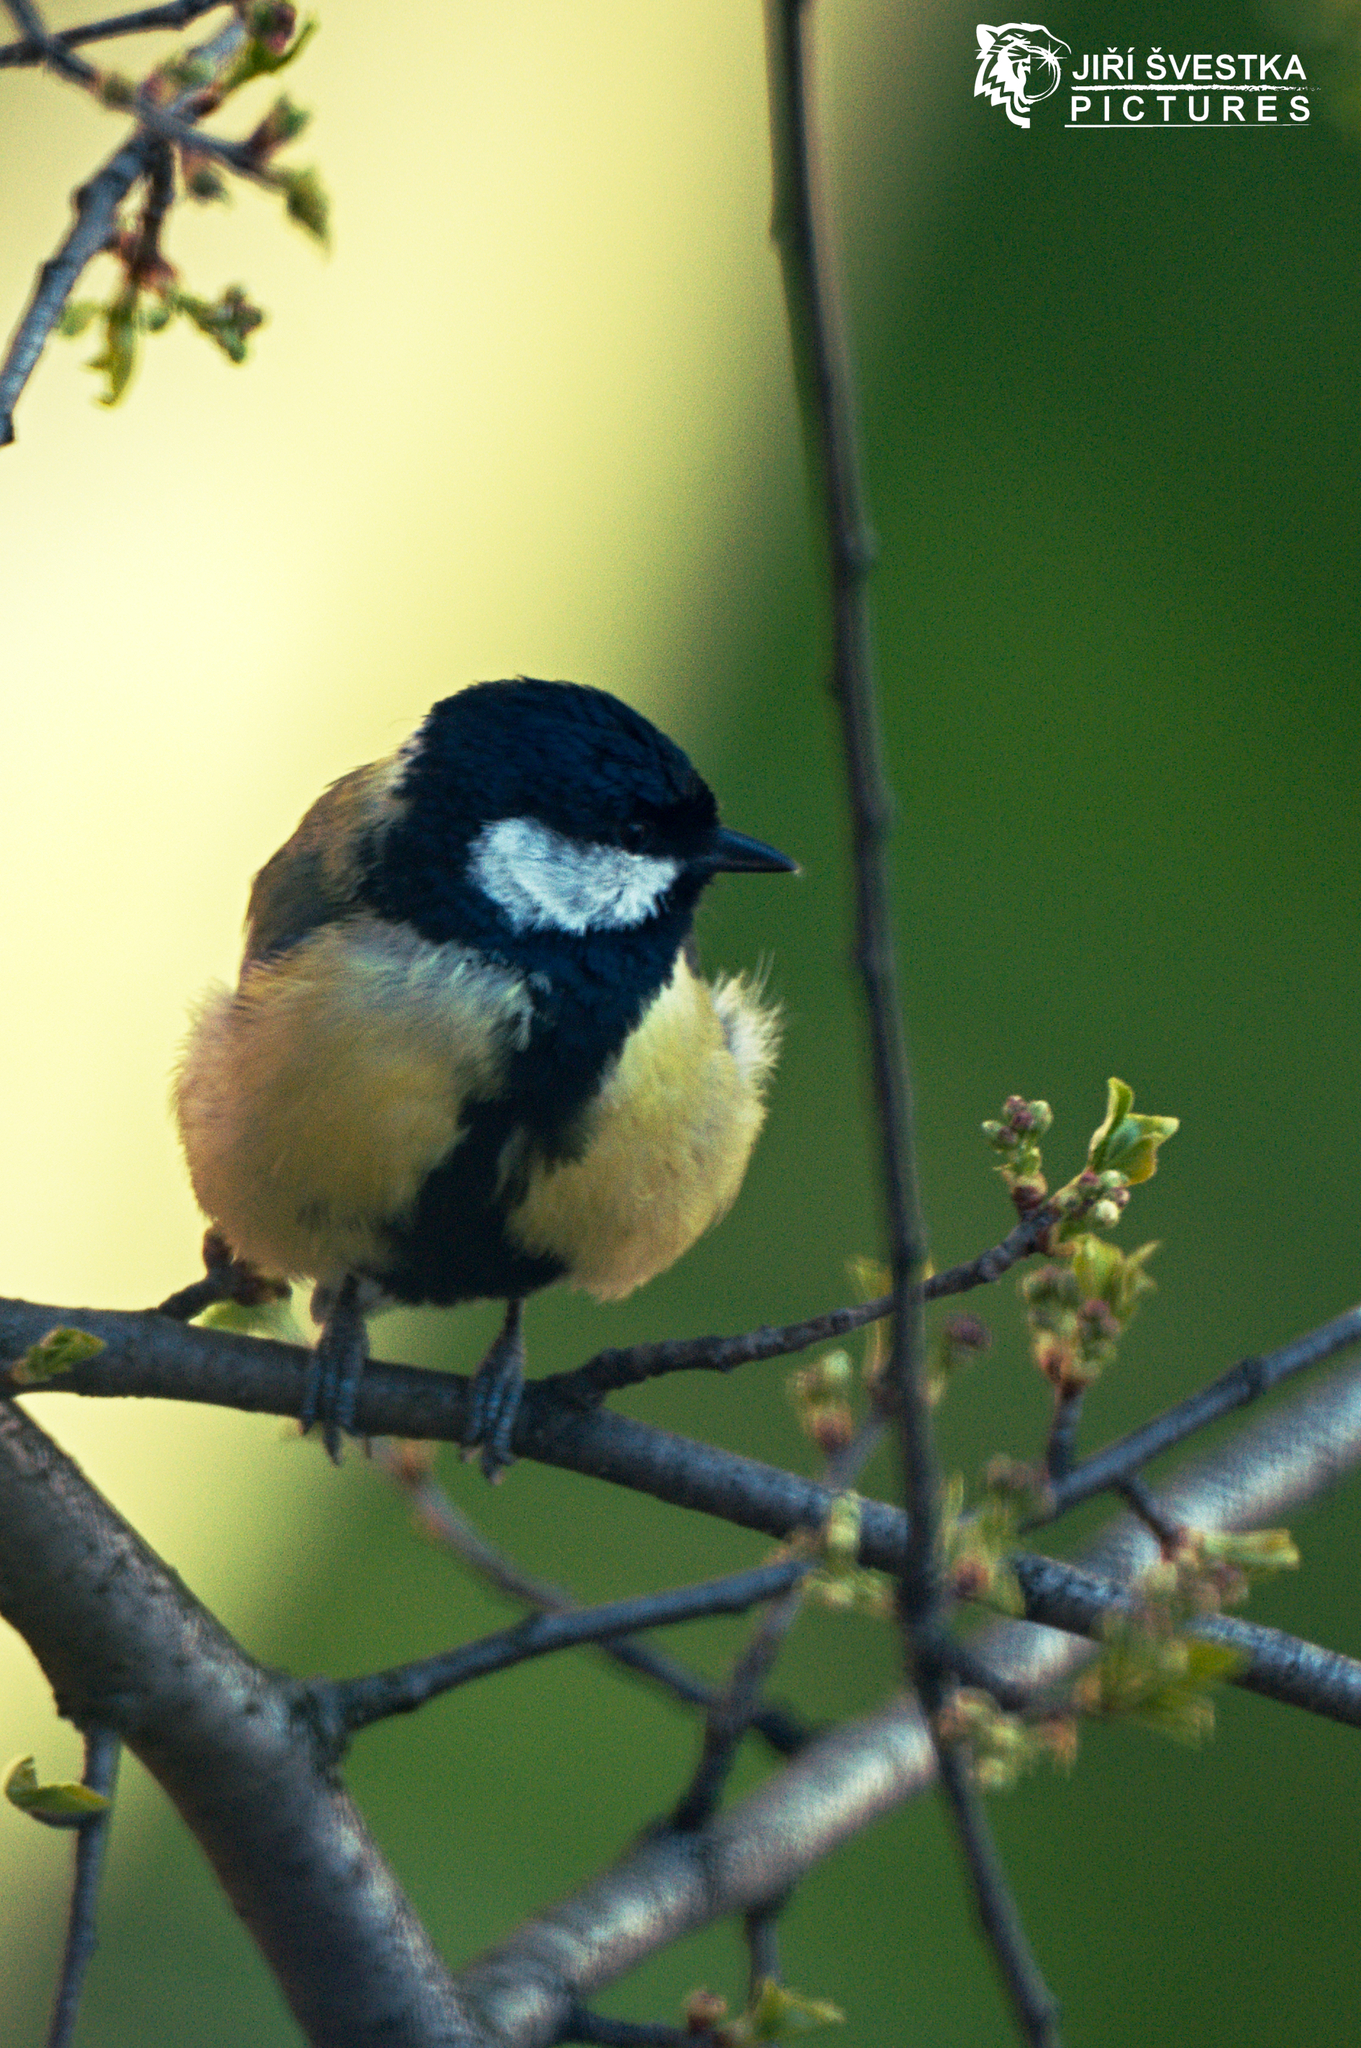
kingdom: Animalia
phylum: Chordata
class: Aves
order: Passeriformes
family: Paridae
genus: Parus
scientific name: Parus major
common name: Great tit
